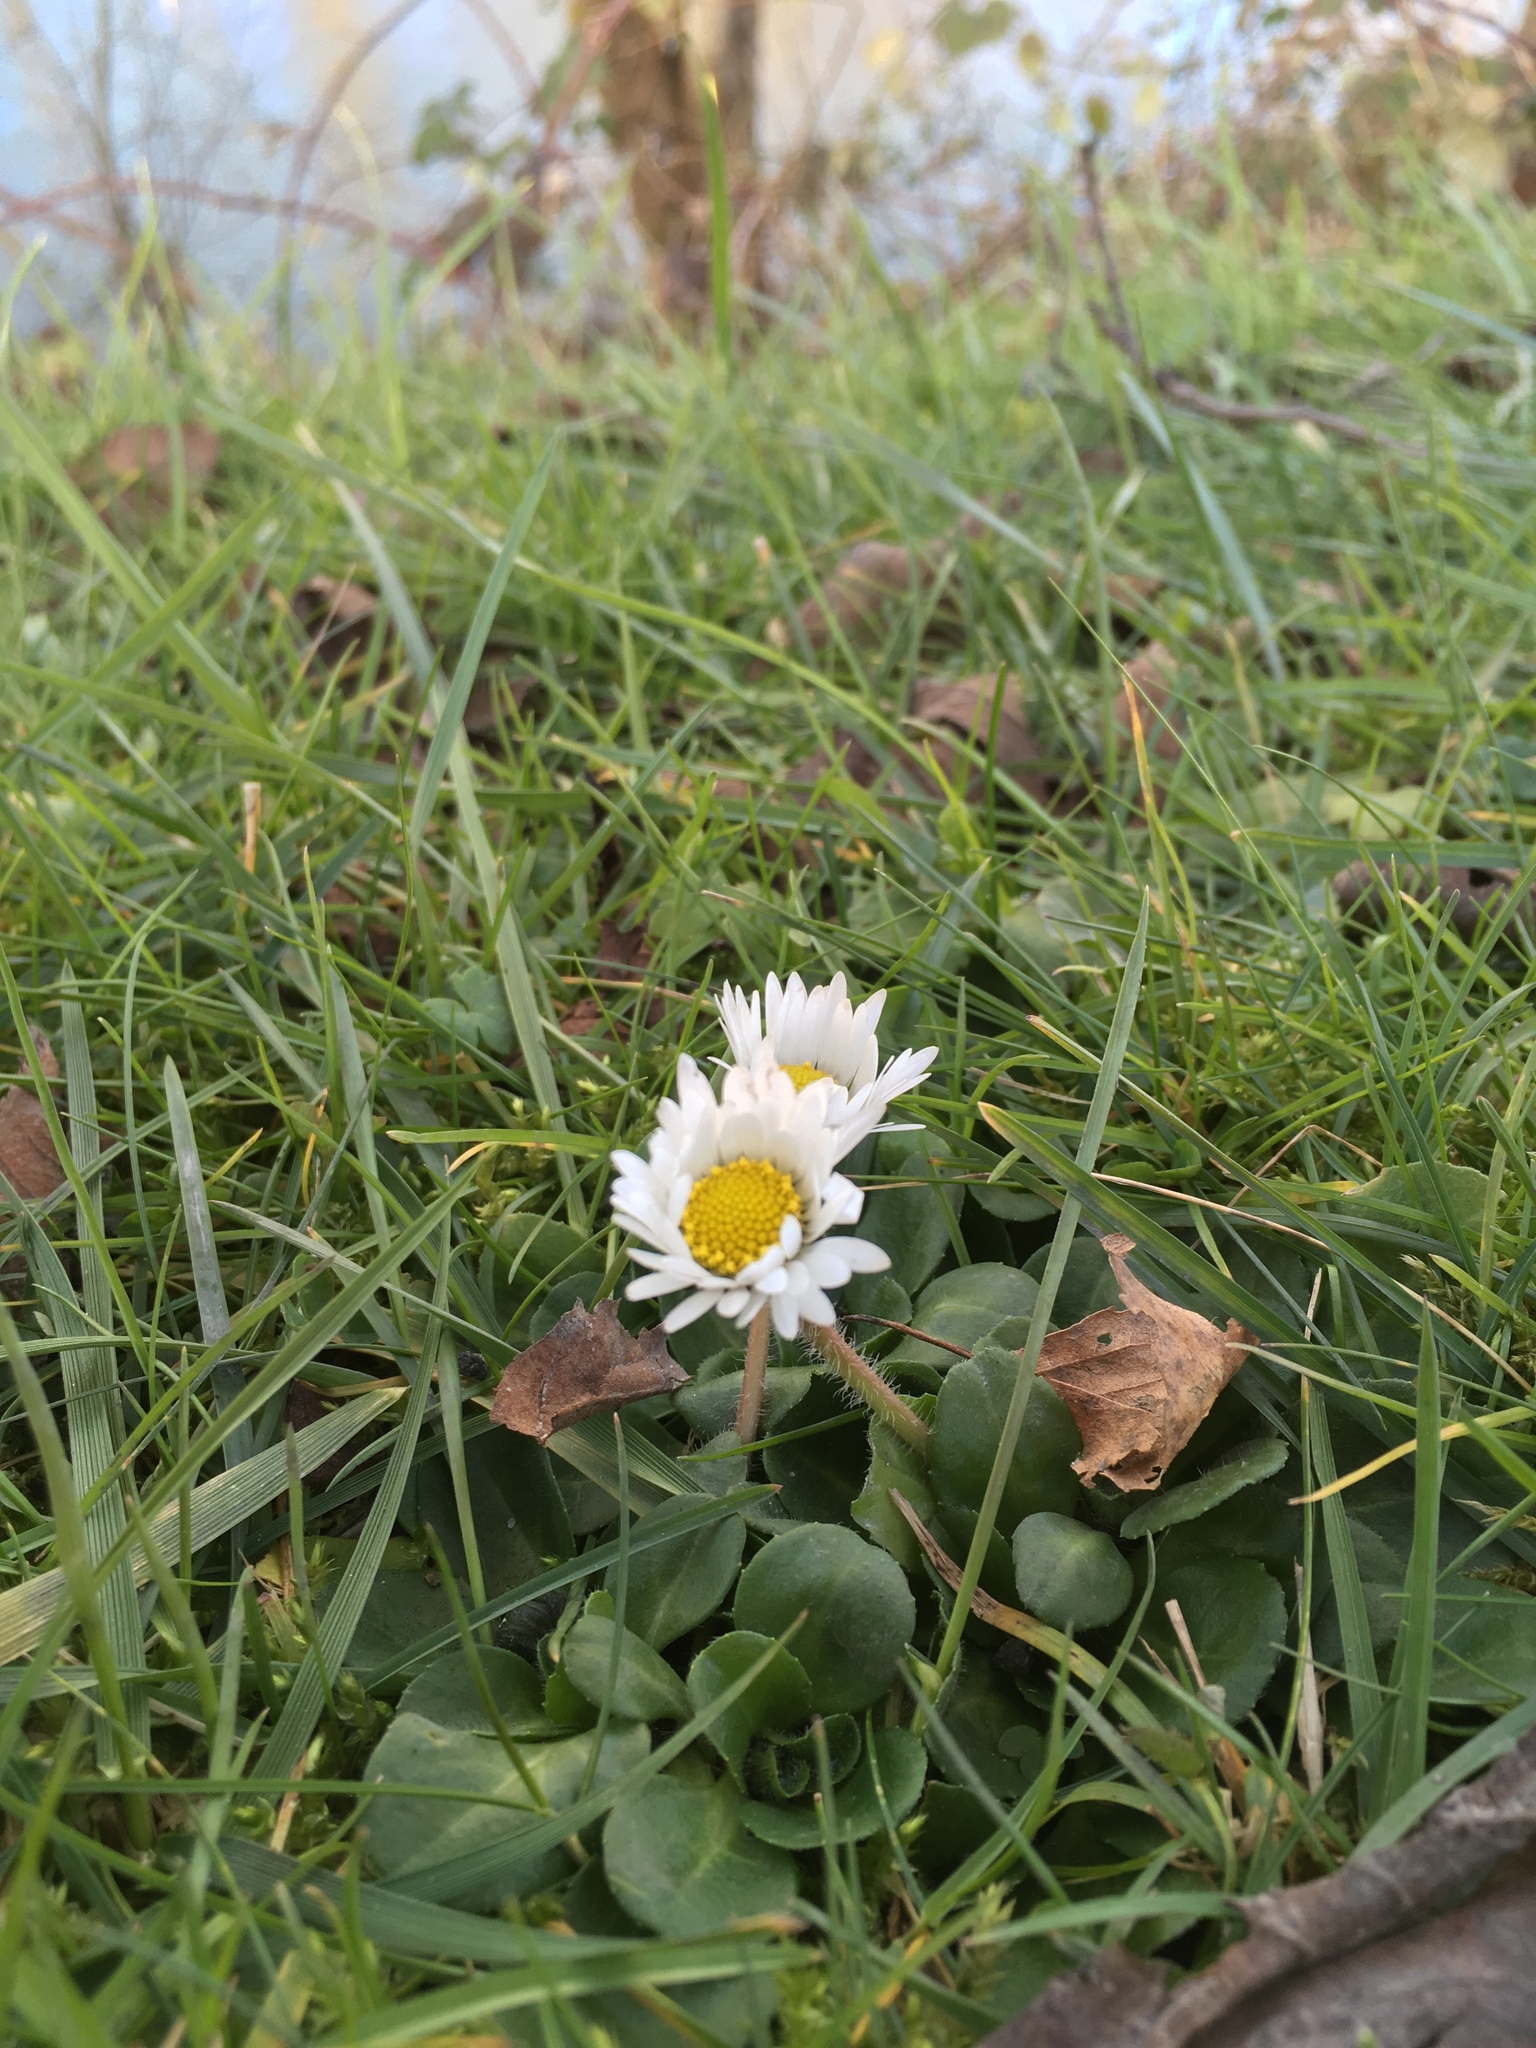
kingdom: Plantae
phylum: Tracheophyta
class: Magnoliopsida
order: Asterales
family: Asteraceae
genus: Bellis
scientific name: Bellis perennis
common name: Lawndaisy
